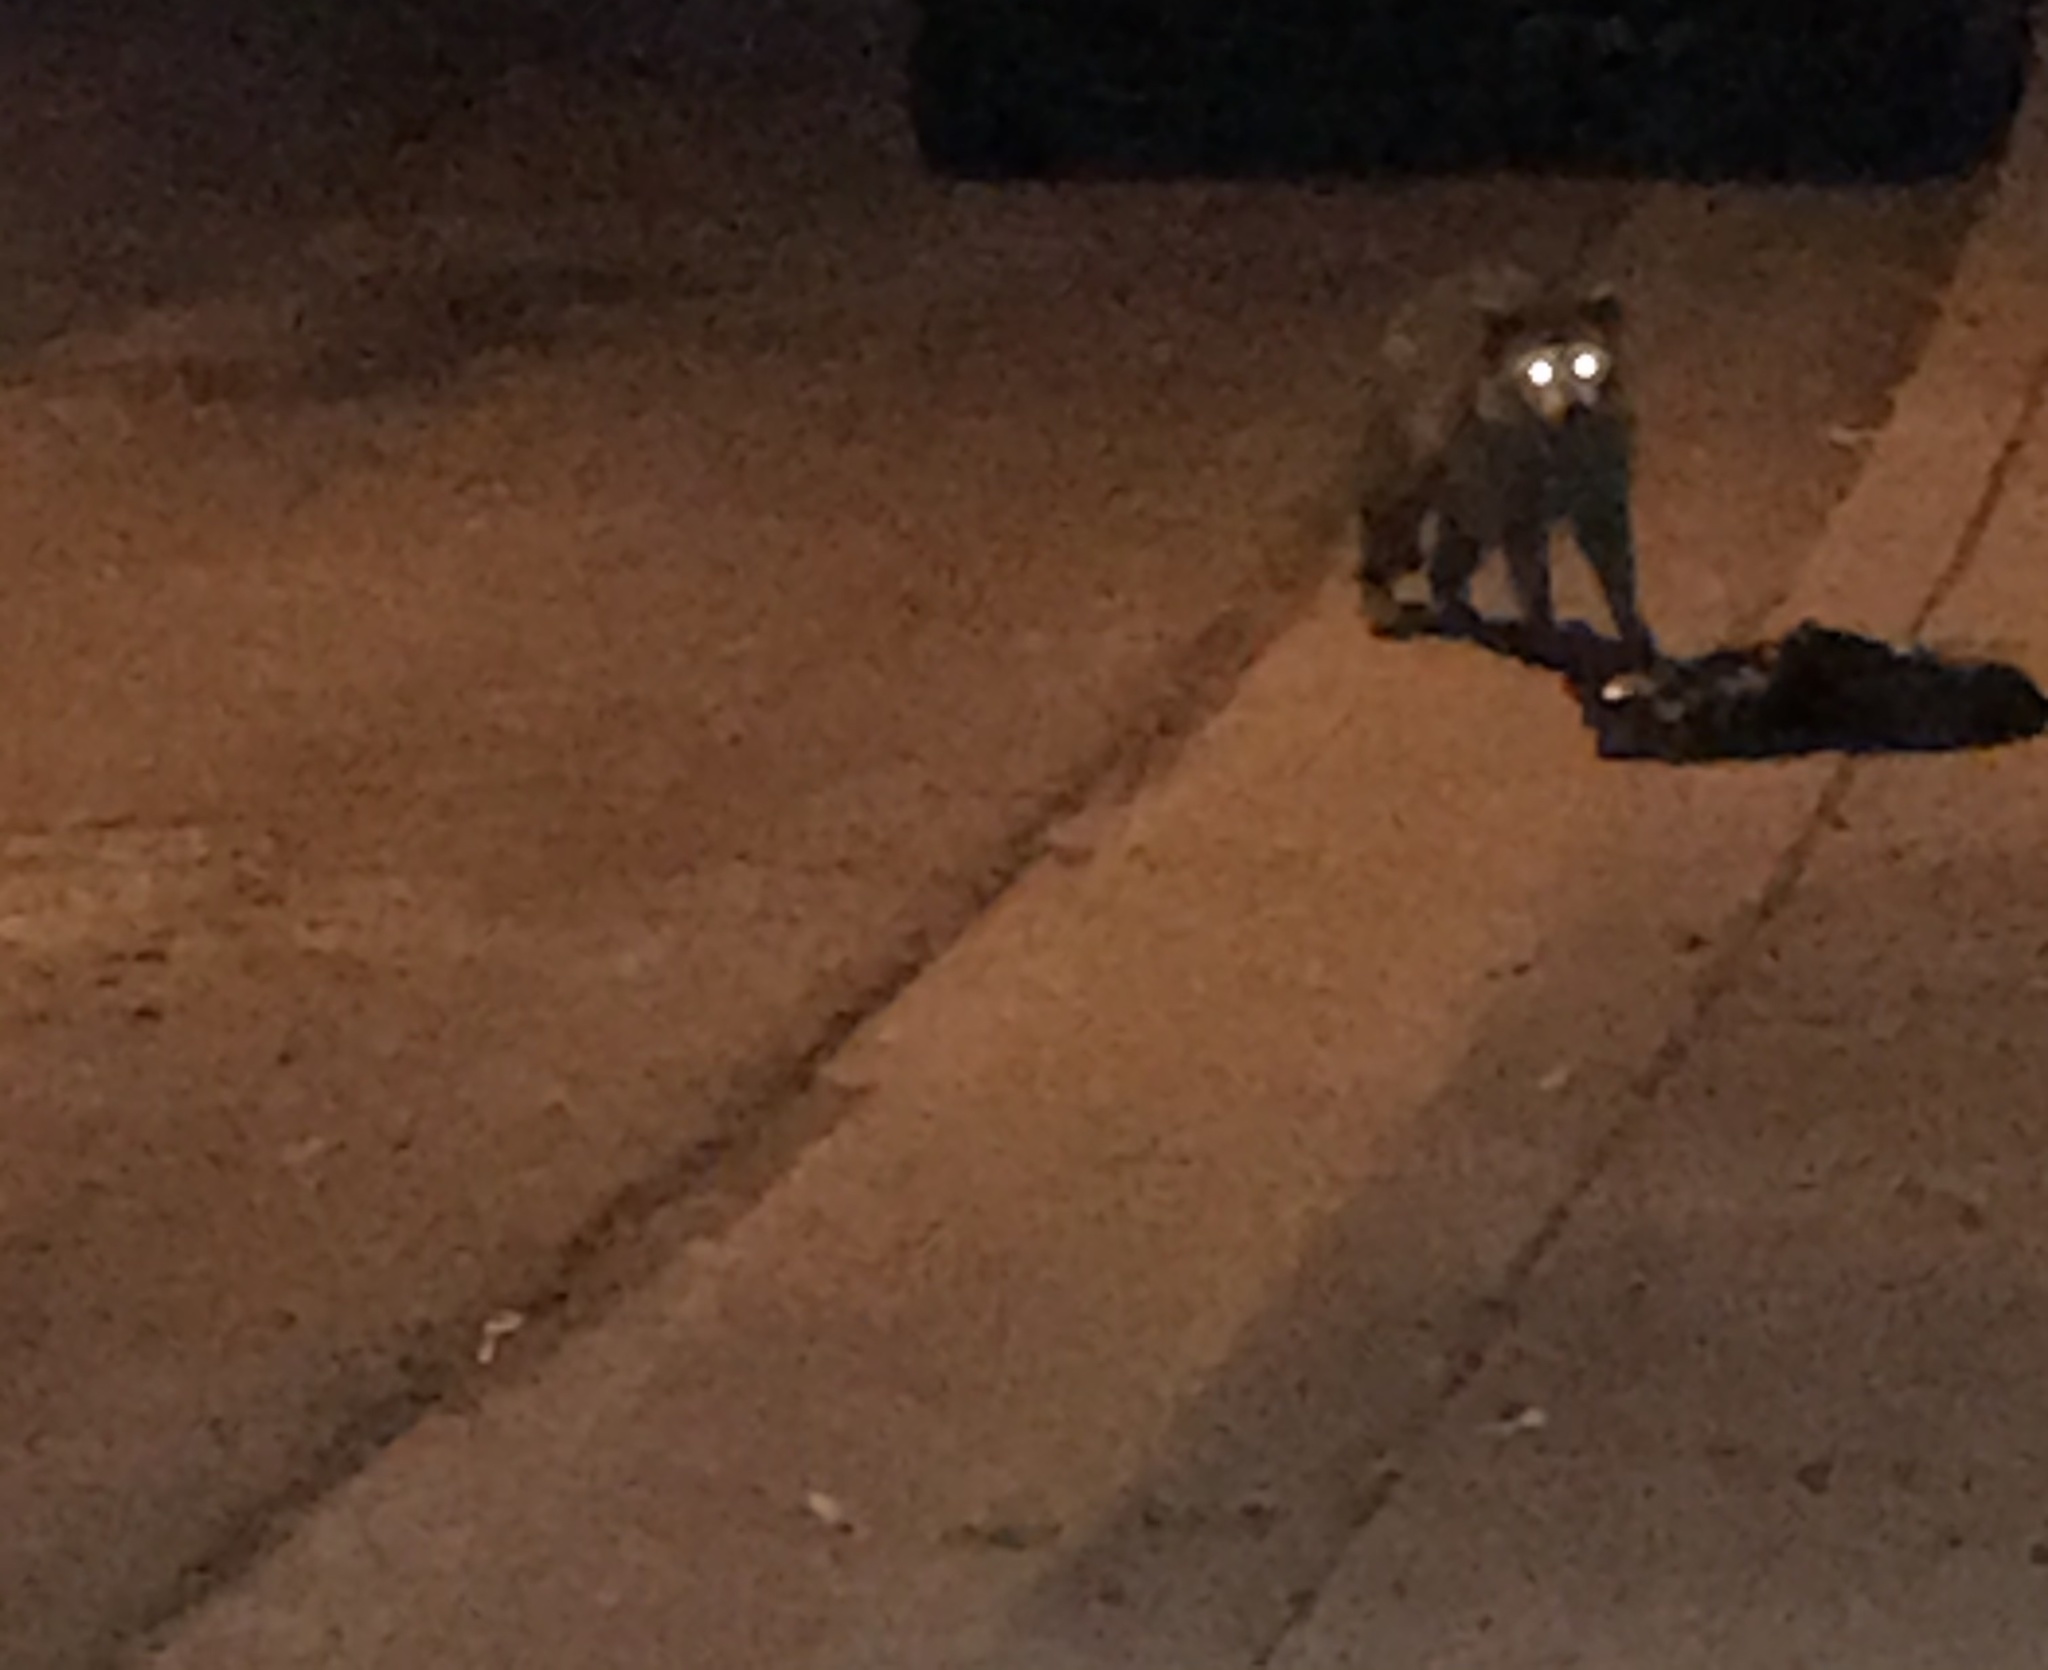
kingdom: Animalia
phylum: Chordata
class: Mammalia
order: Carnivora
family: Procyonidae
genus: Procyon
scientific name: Procyon lotor
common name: Raccoon
